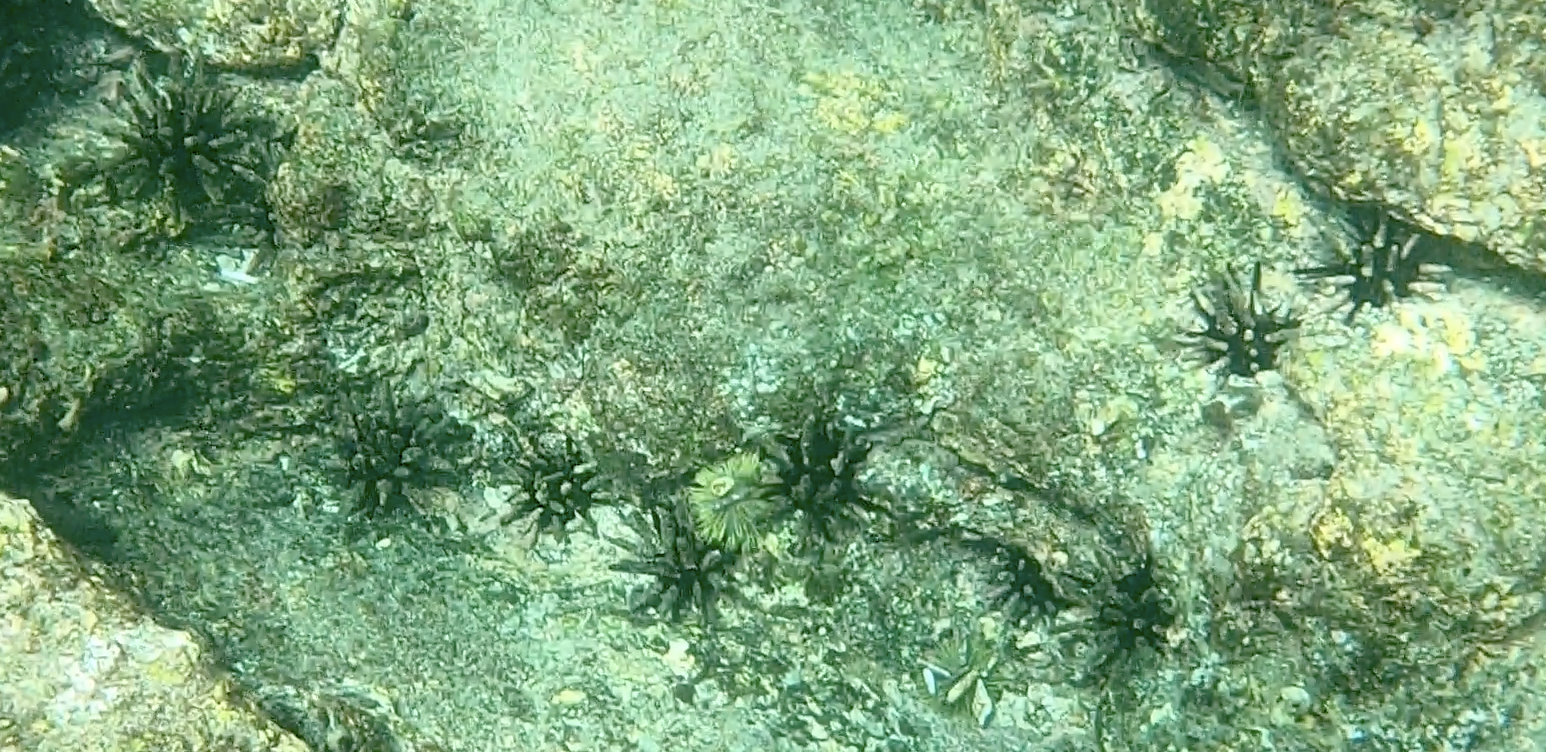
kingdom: Animalia
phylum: Echinodermata
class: Echinoidea
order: Cidaroida
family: Cidaridae
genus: Eucidaris
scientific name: Eucidaris galapagensis
